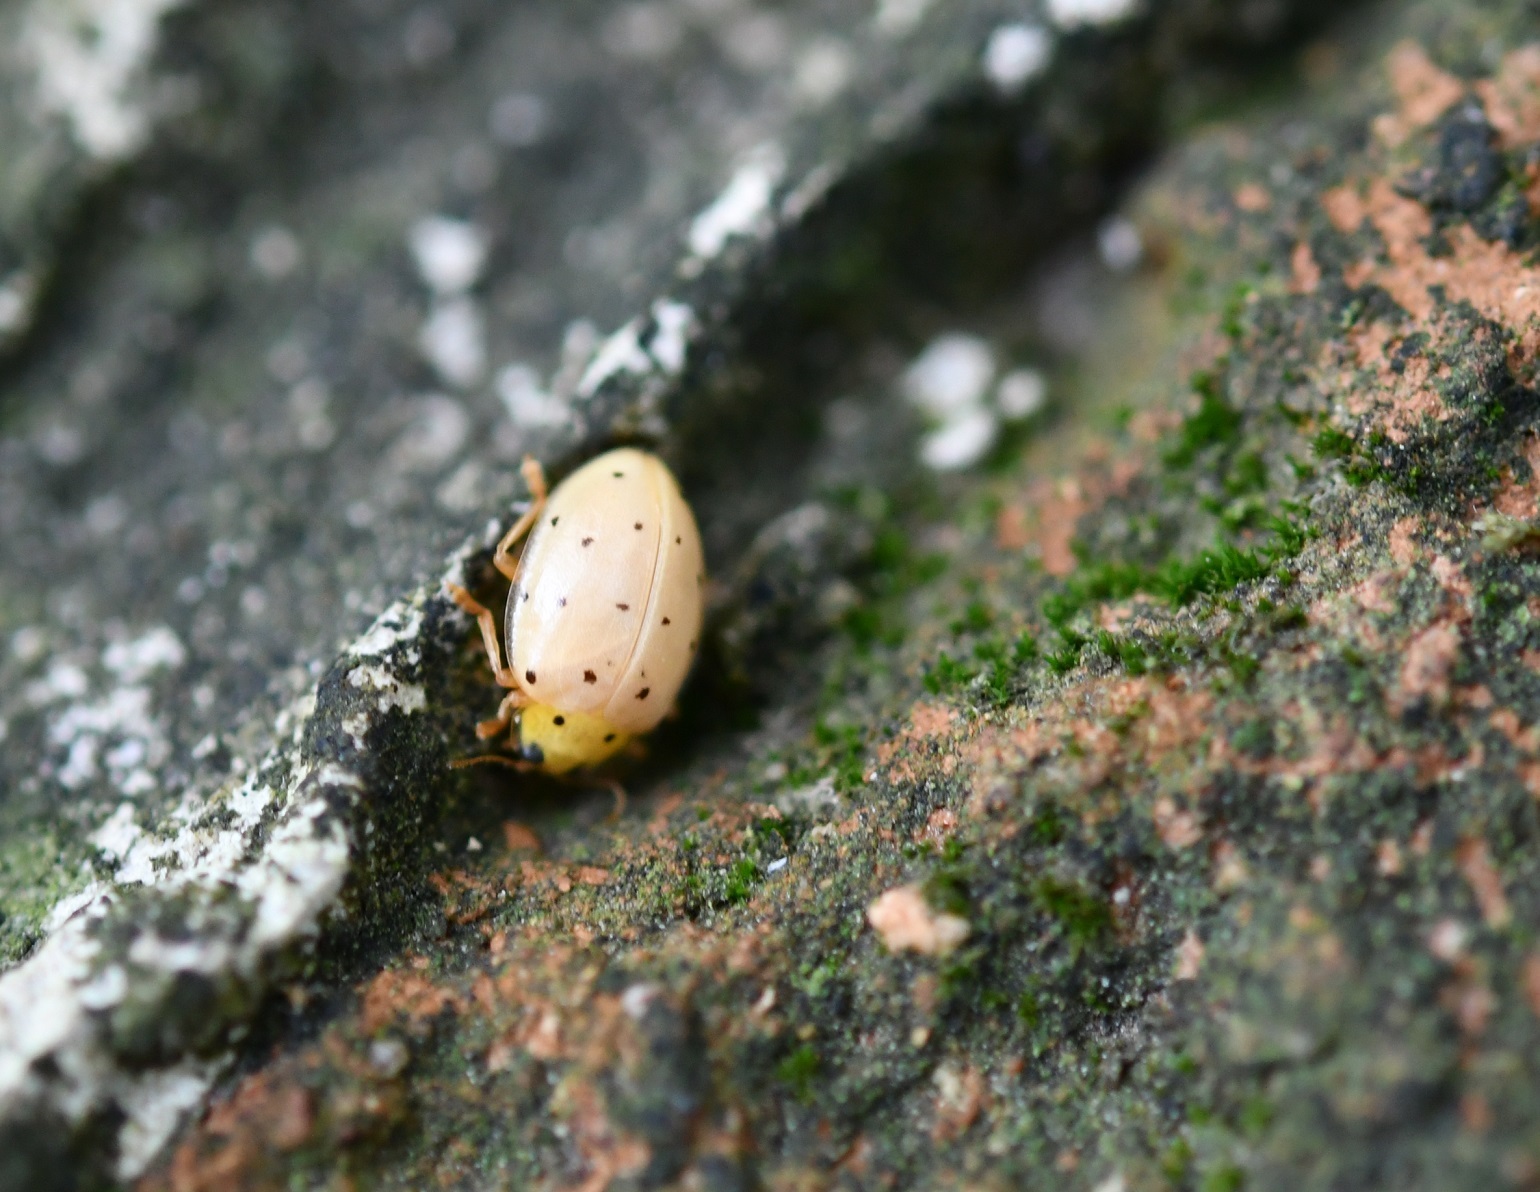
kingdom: Animalia
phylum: Arthropoda
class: Insecta
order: Coleoptera
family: Coccinellidae
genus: Neohalyzia
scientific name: Neohalyzia
